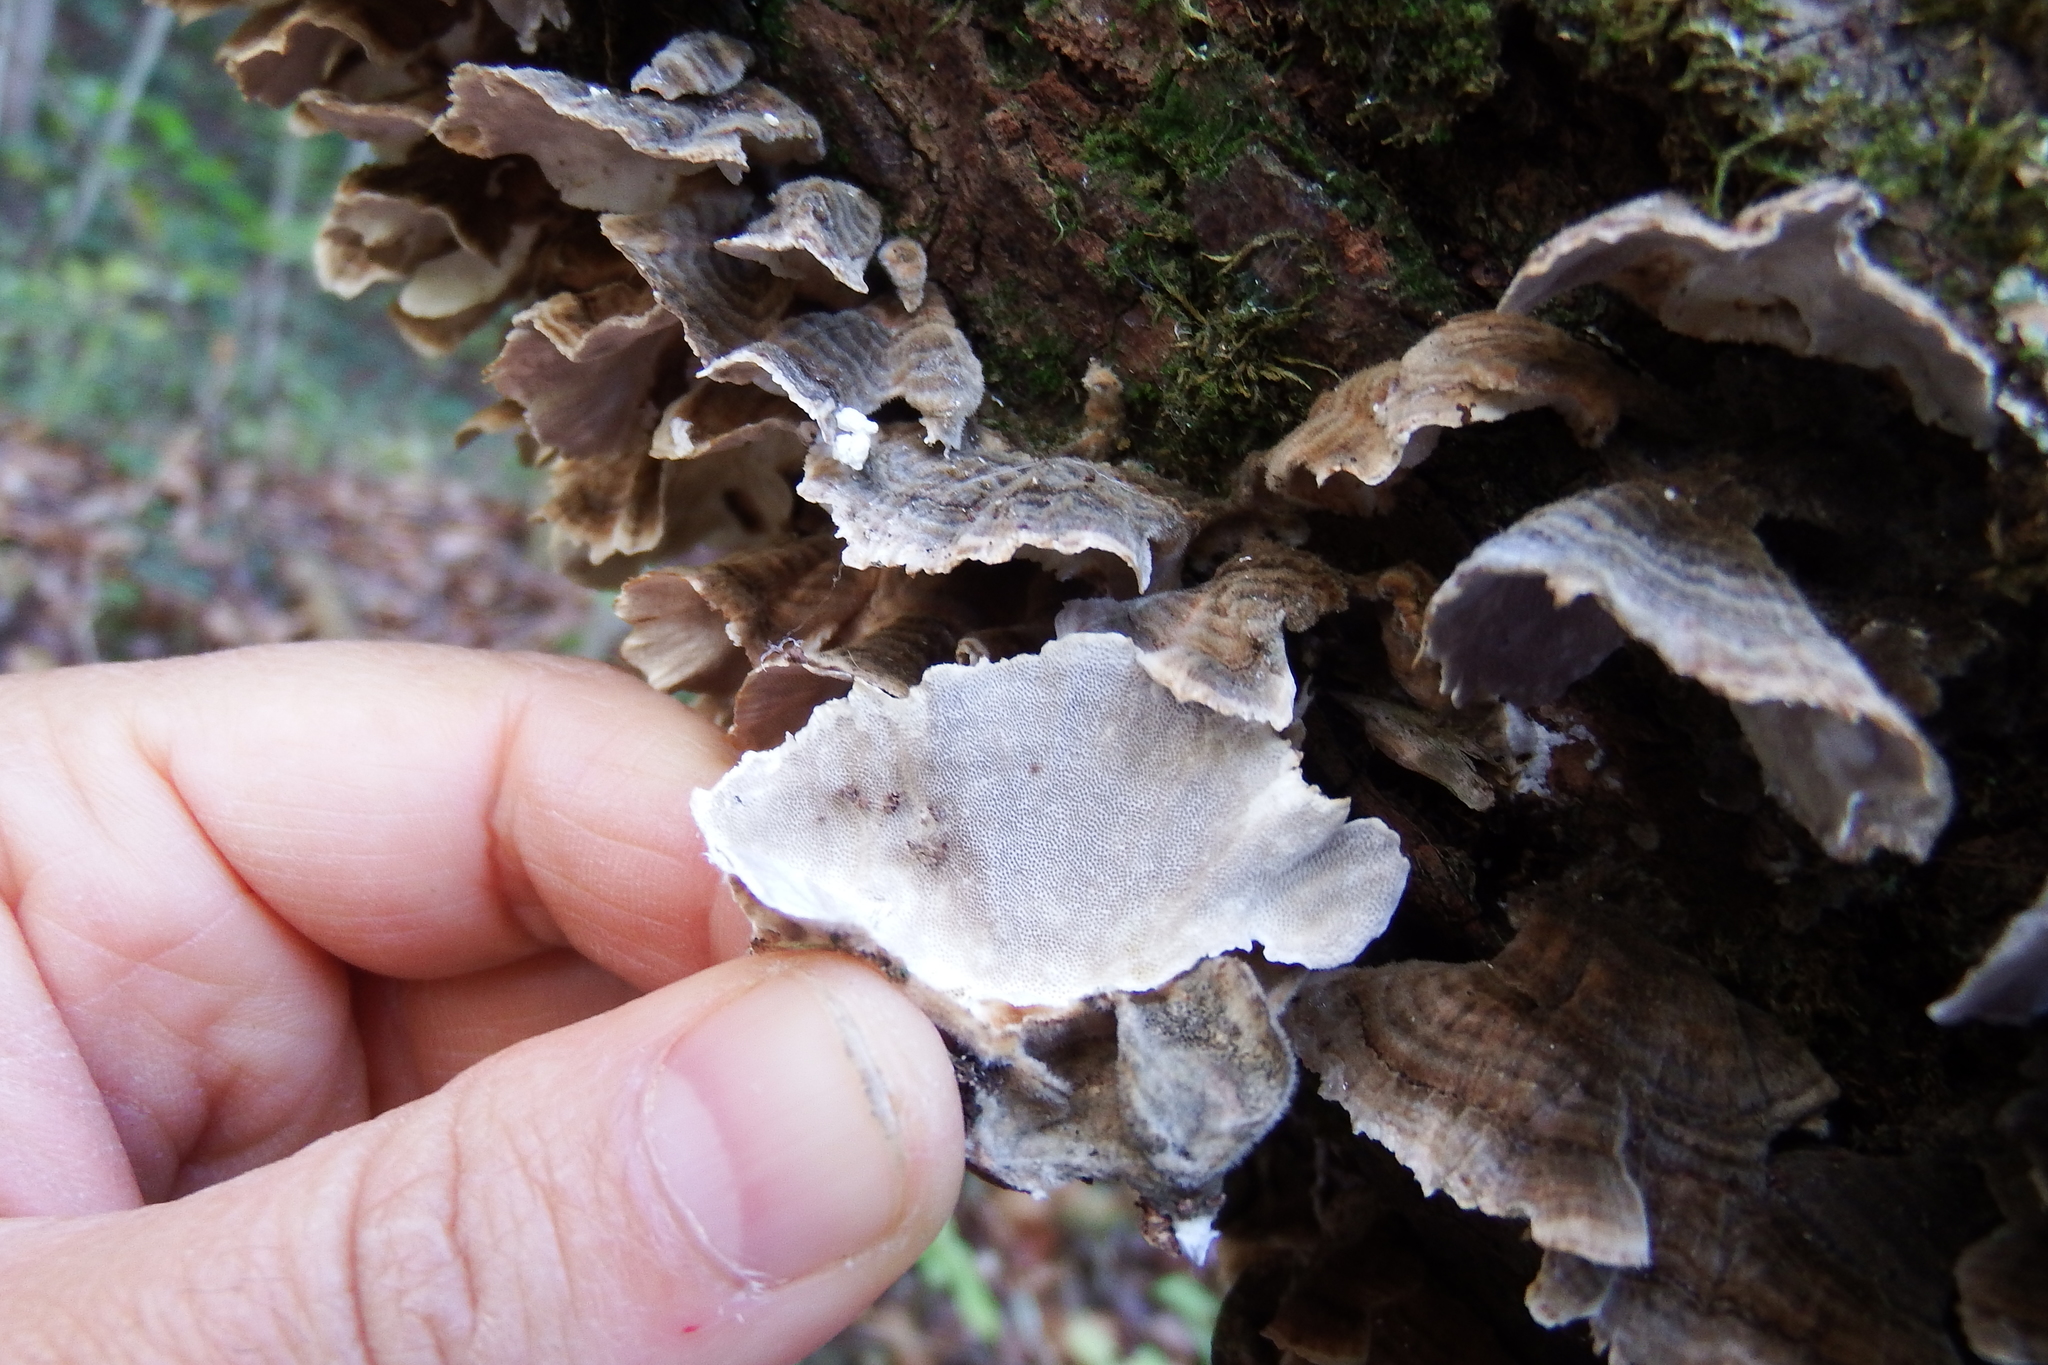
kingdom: Fungi
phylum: Basidiomycota
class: Agaricomycetes
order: Polyporales
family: Polyporaceae
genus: Trametes
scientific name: Trametes versicolor
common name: Turkeytail
